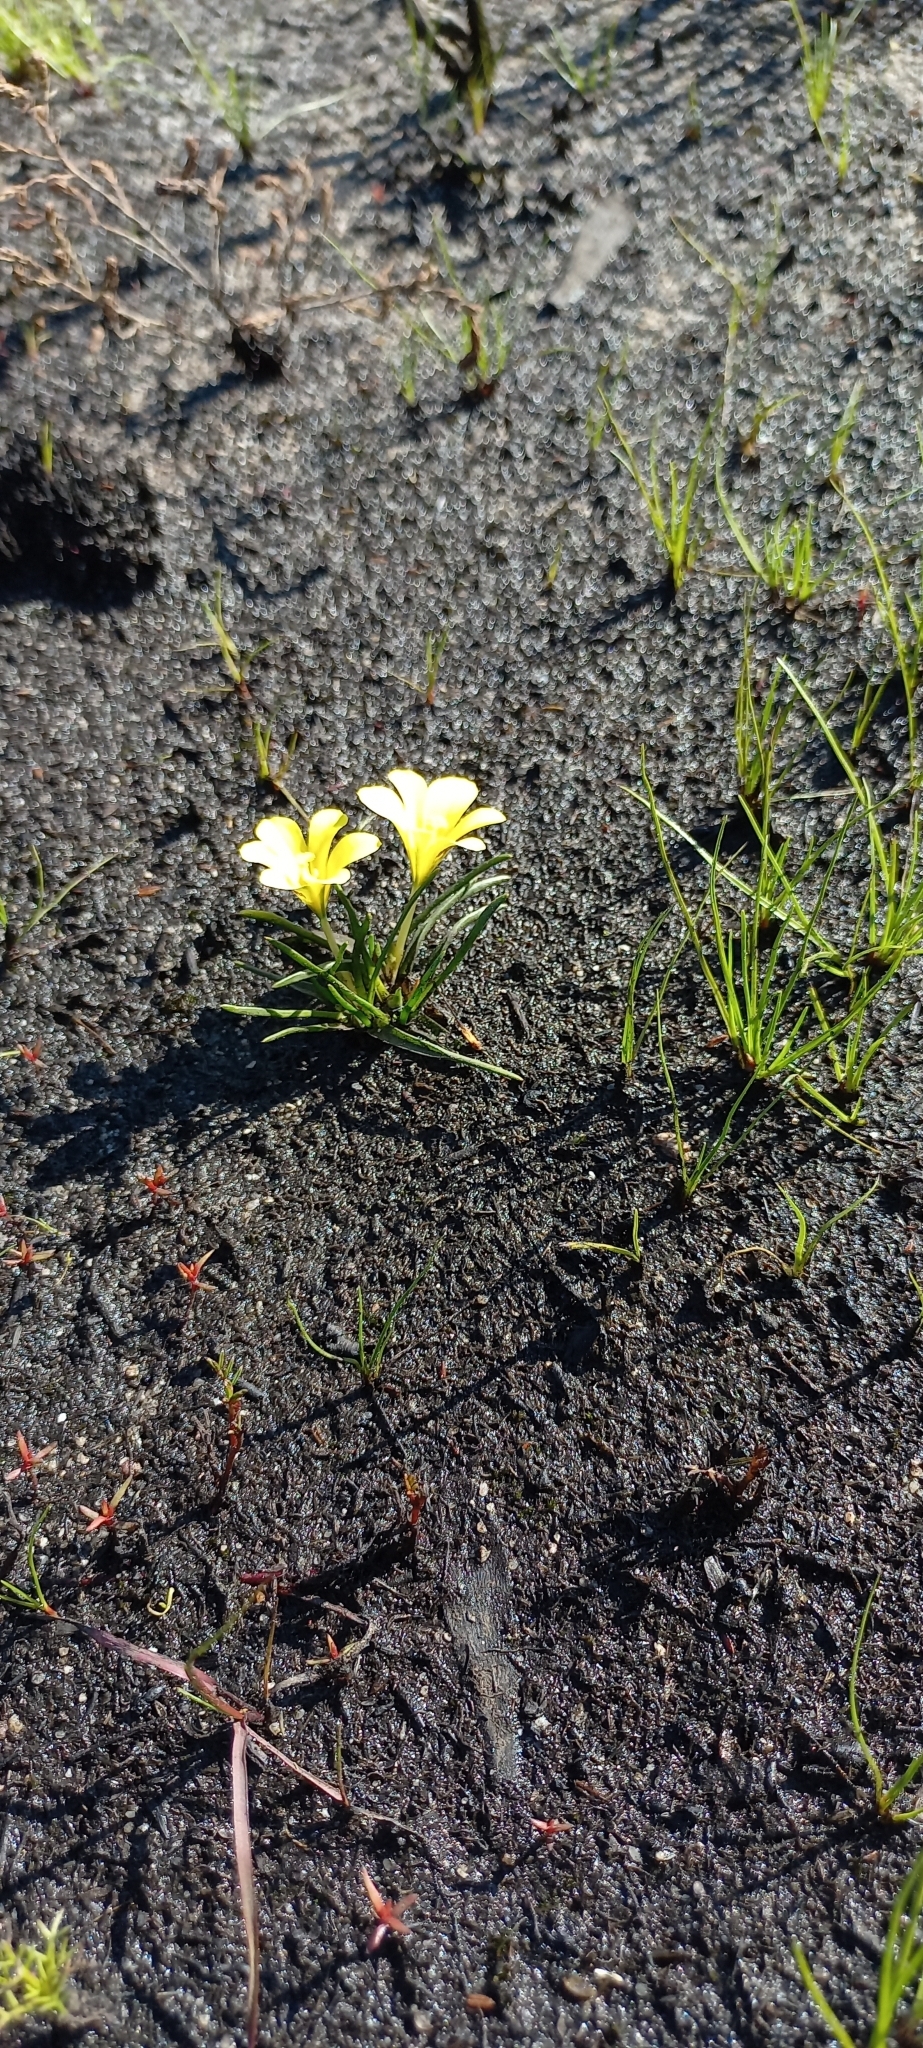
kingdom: Plantae
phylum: Tracheophyta
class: Liliopsida
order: Asparagales
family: Iridaceae
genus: Moraea
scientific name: Moraea fugacissima
